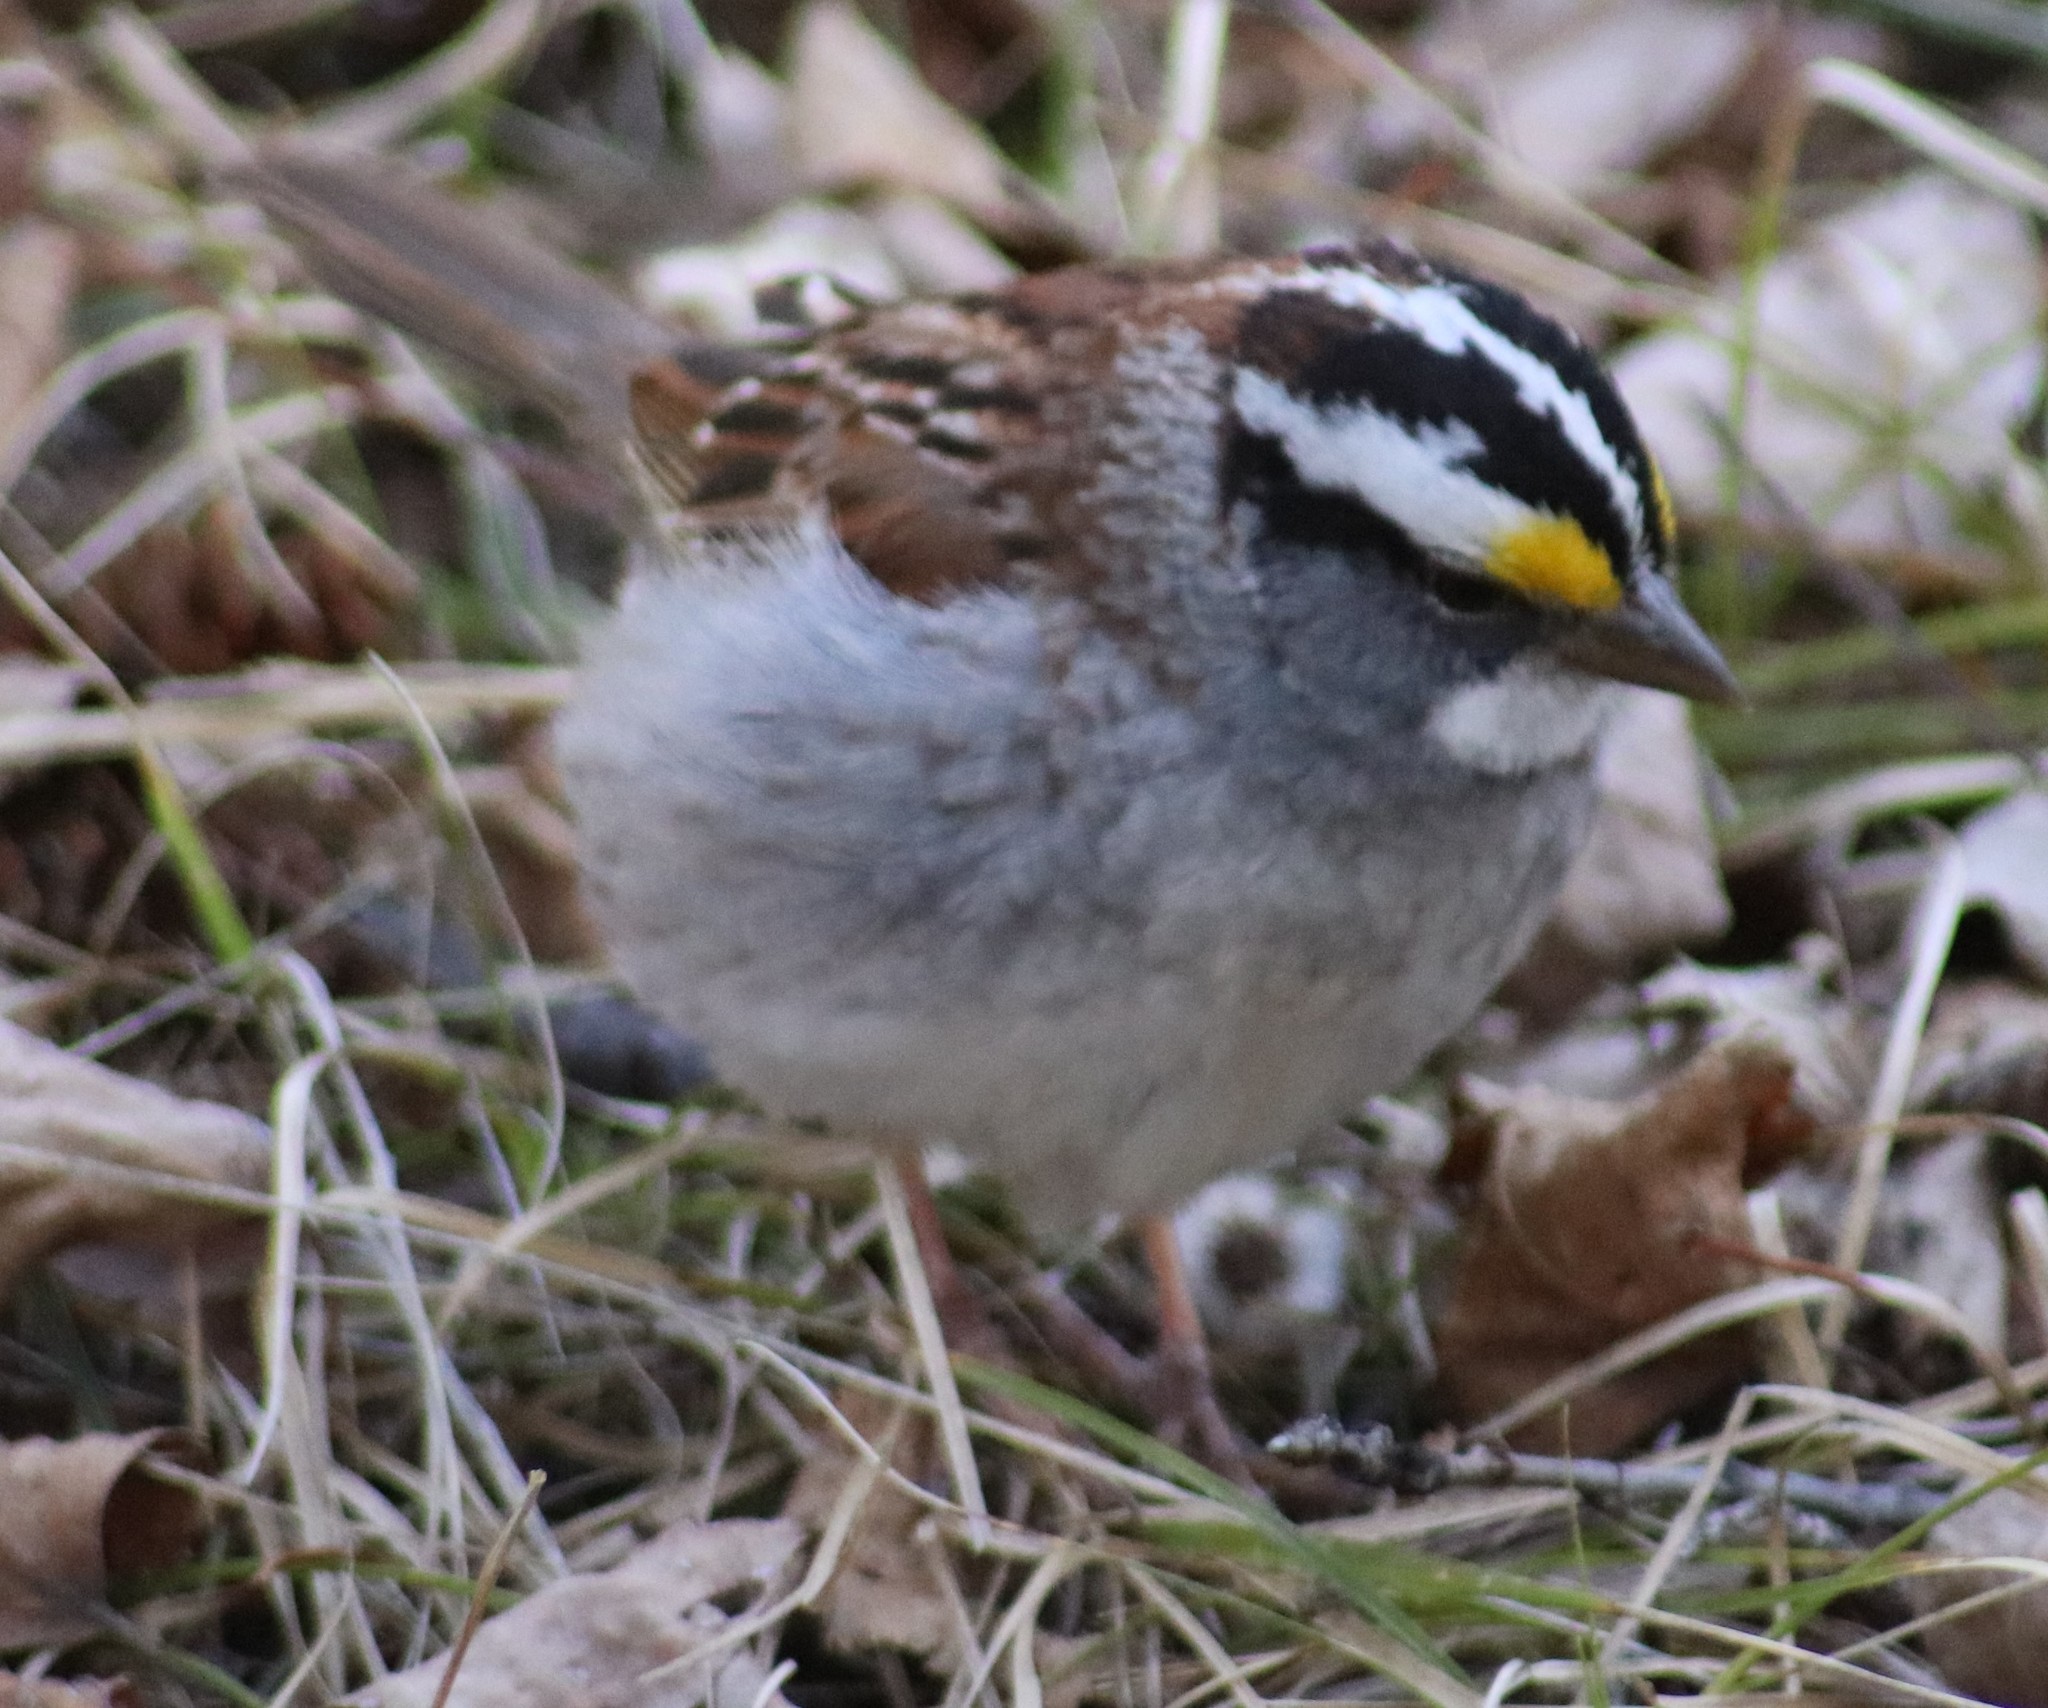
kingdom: Animalia
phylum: Chordata
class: Aves
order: Passeriformes
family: Passerellidae
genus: Zonotrichia
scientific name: Zonotrichia albicollis
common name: White-throated sparrow
